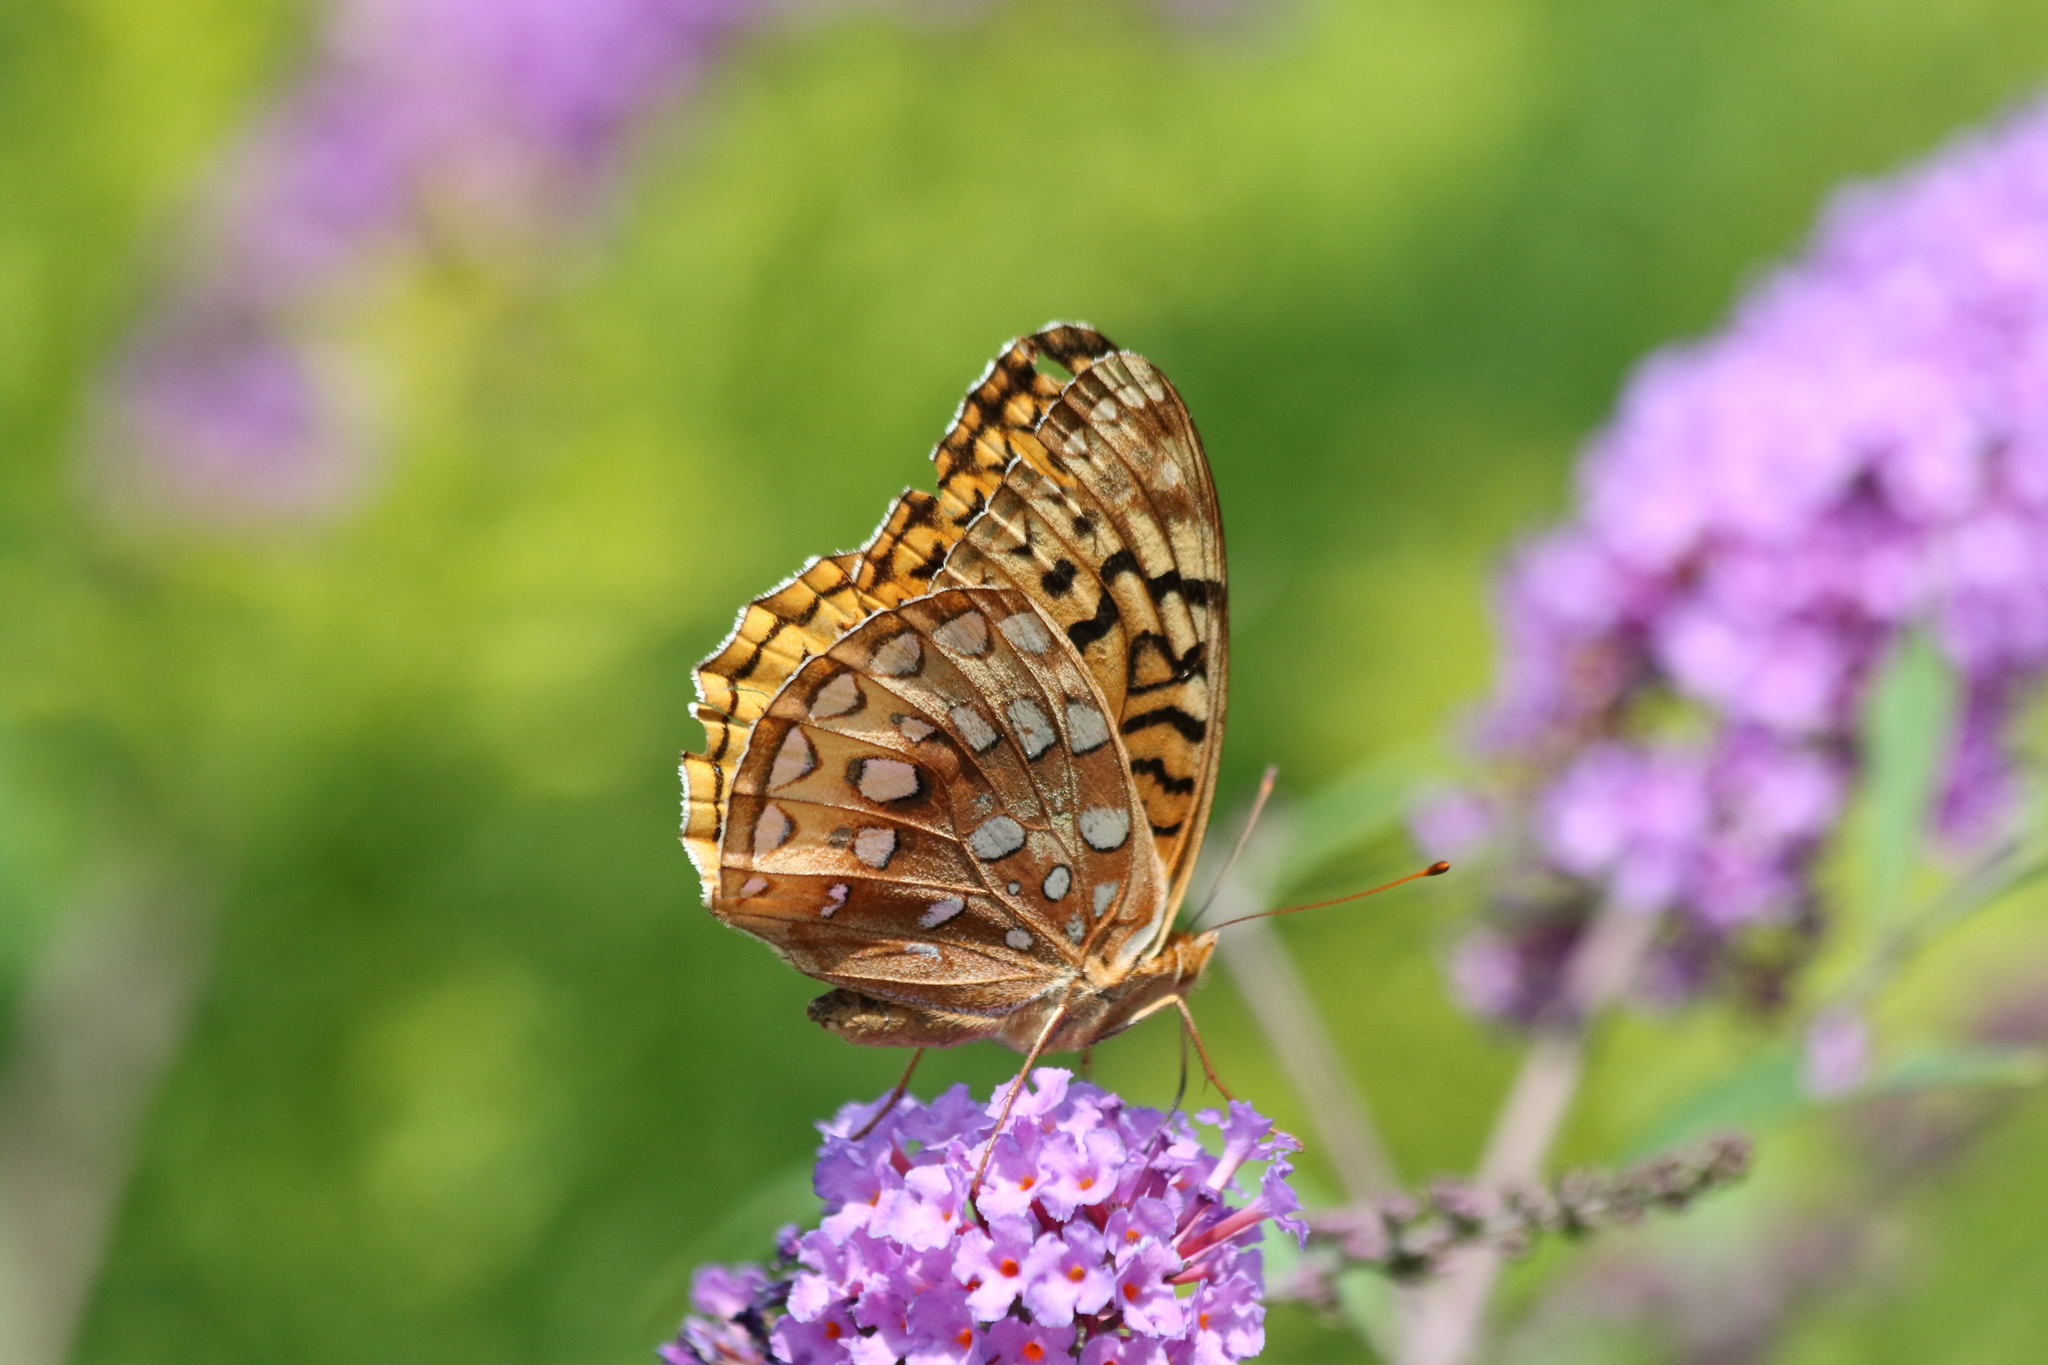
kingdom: Animalia
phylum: Arthropoda
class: Insecta
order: Lepidoptera
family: Nymphalidae
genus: Speyeria
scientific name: Speyeria cybele
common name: Great spangled fritillary
